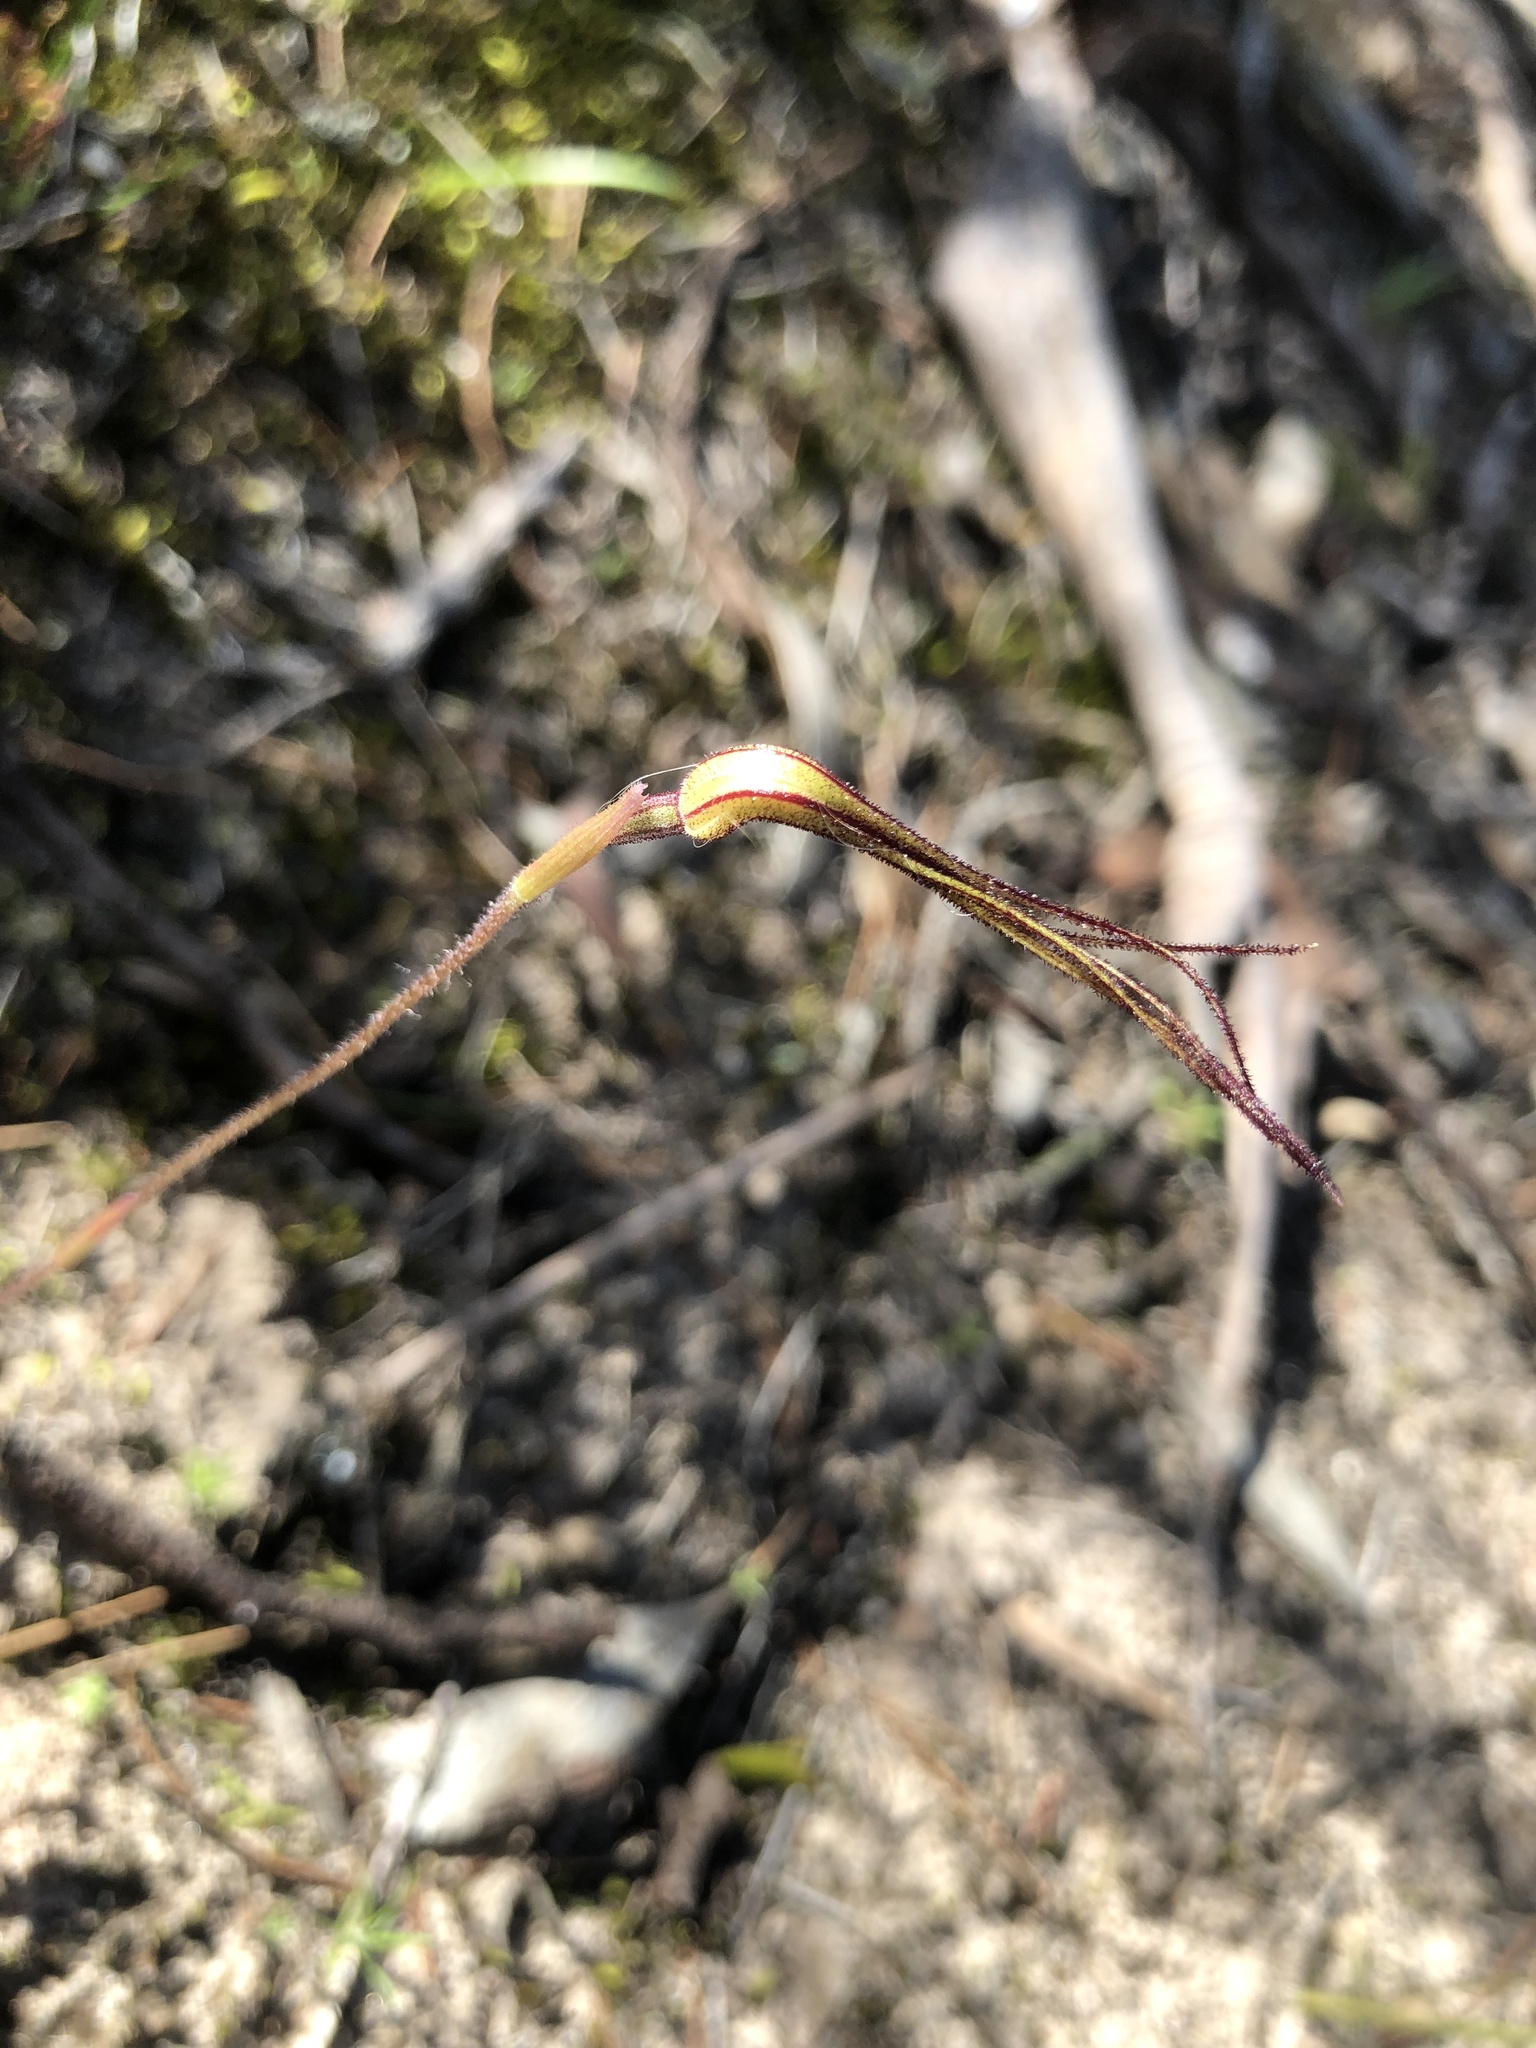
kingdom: Plantae
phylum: Tracheophyta
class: Liliopsida
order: Asparagales
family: Orchidaceae
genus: Caladenia
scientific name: Caladenia capillata
